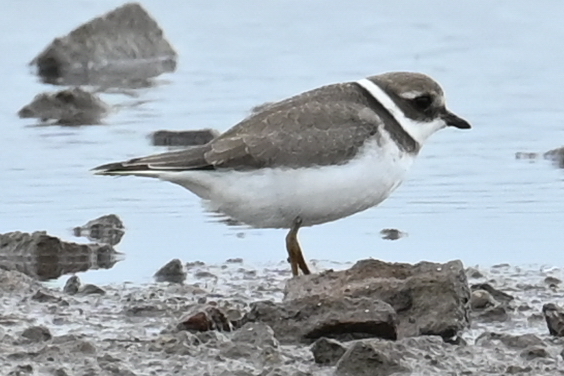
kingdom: Animalia
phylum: Chordata
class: Aves
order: Charadriiformes
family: Charadriidae
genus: Charadrius
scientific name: Charadrius hiaticula
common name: Common ringed plover
